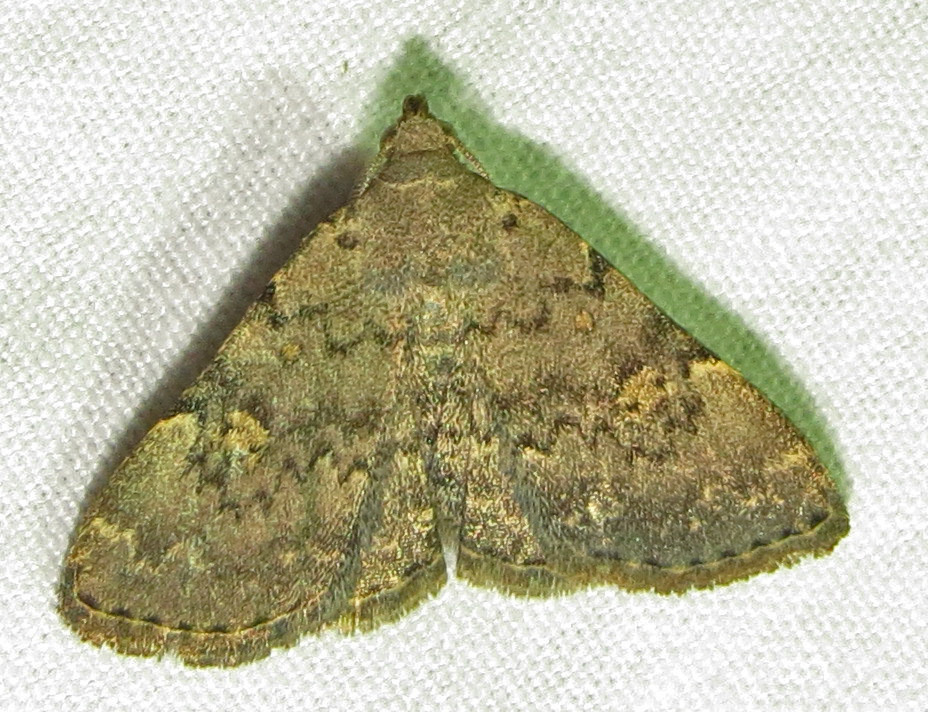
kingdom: Animalia
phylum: Arthropoda
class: Insecta
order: Lepidoptera
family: Erebidae
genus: Idia
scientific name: Idia aemula
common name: Common idia moth
